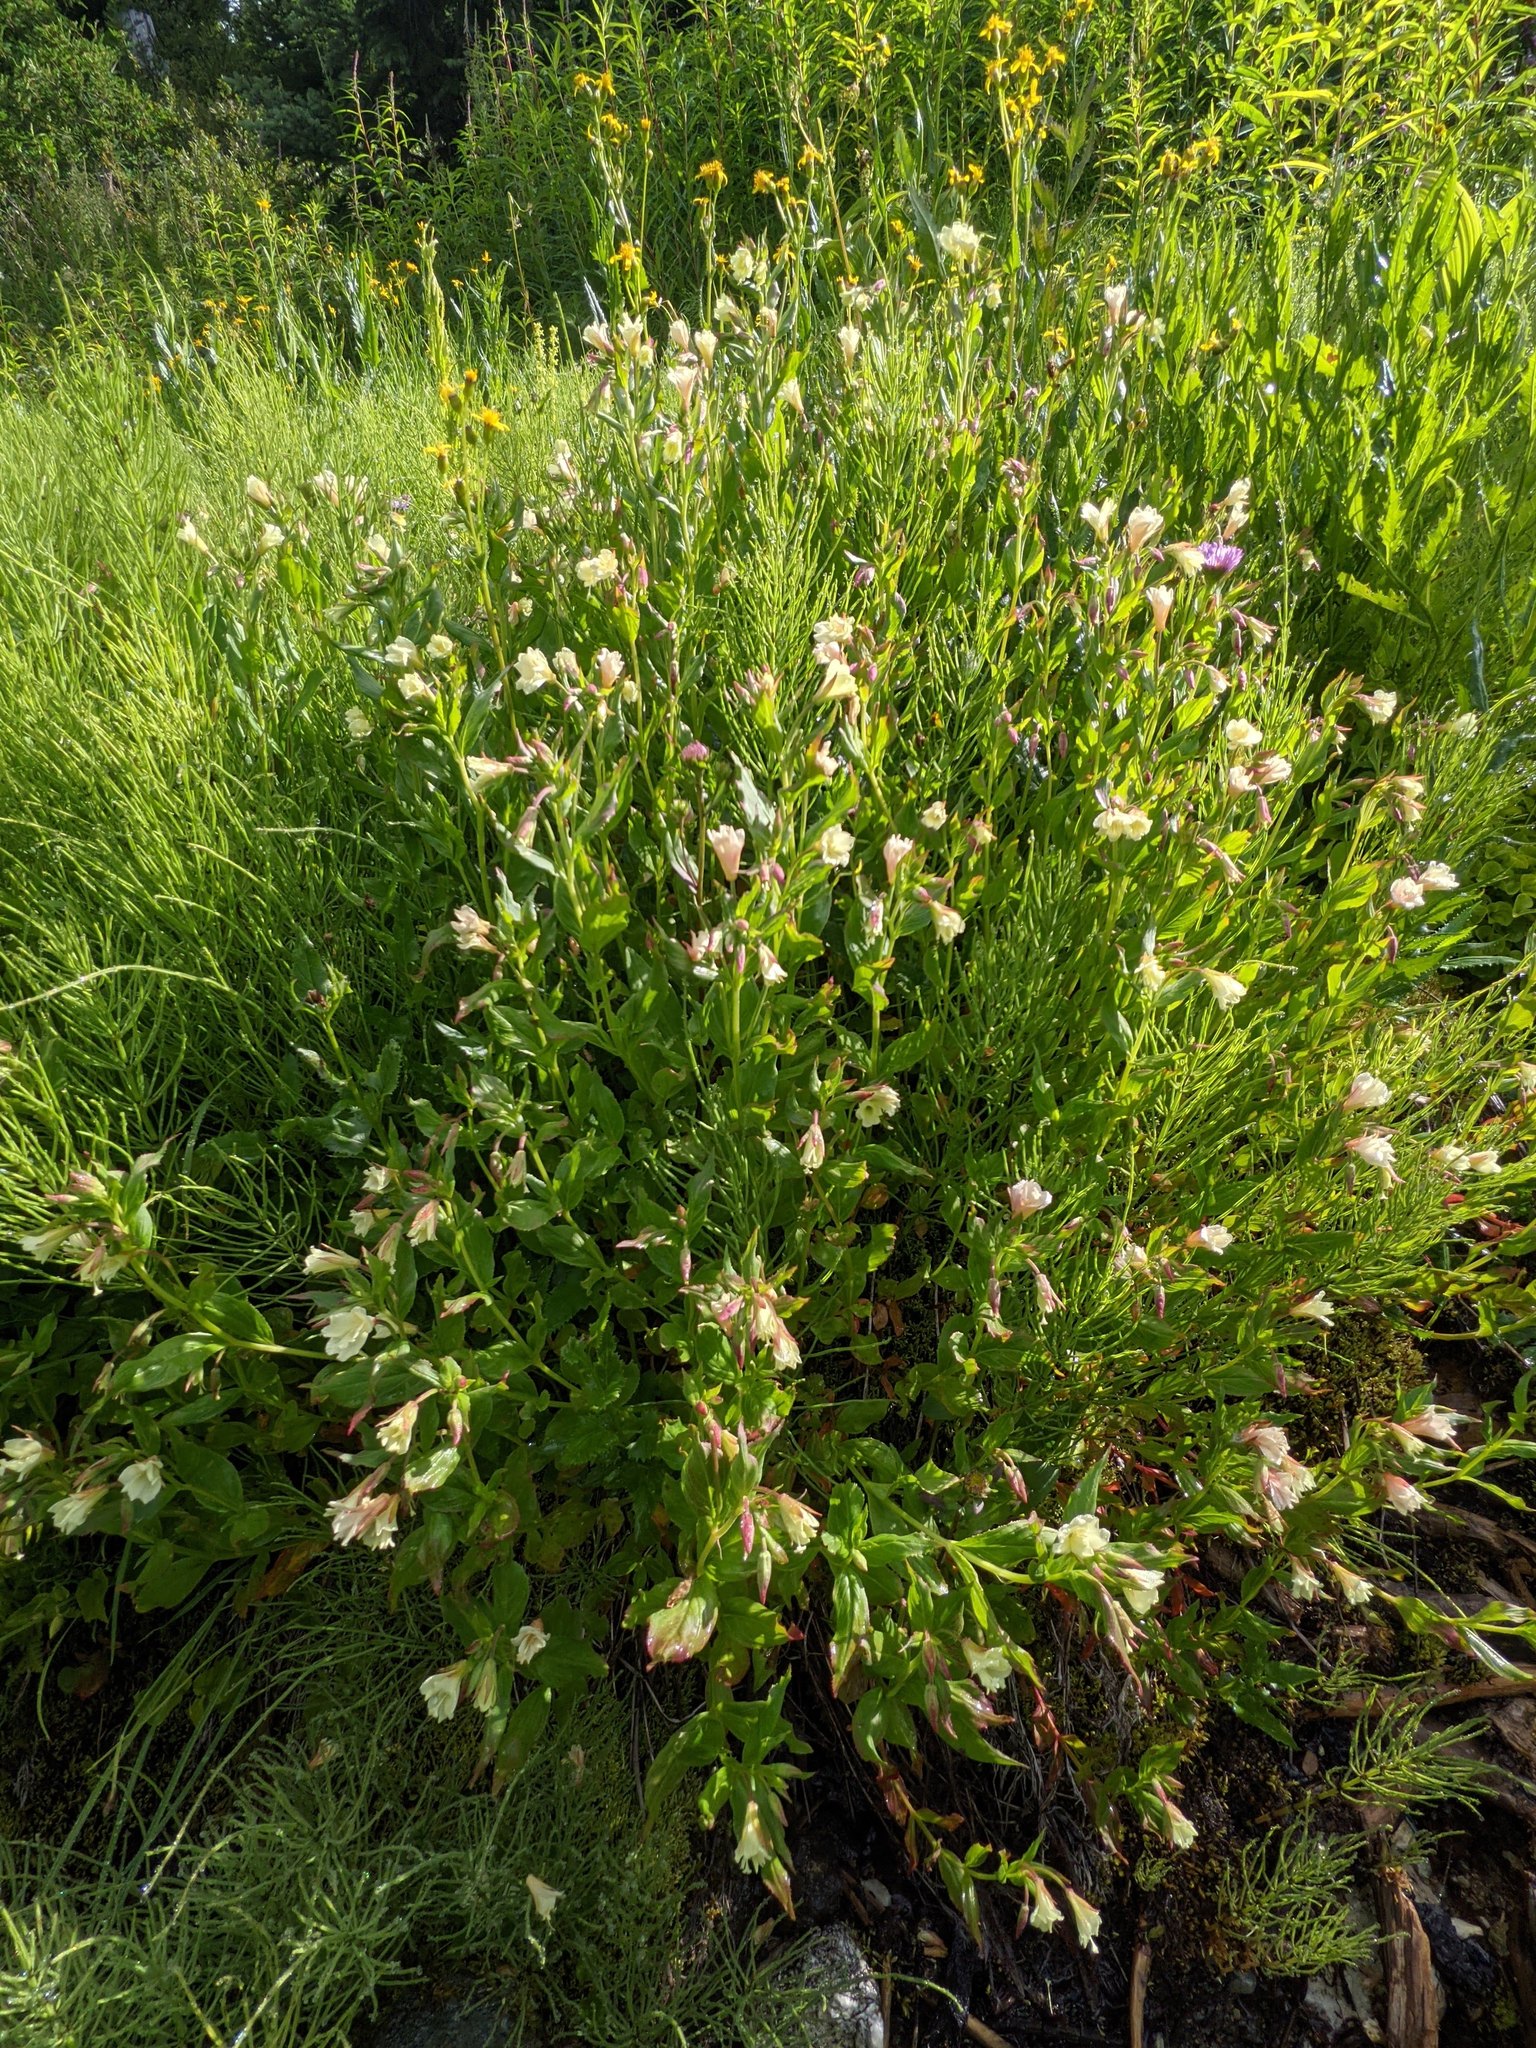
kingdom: Plantae
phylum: Tracheophyta
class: Magnoliopsida
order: Myrtales
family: Onagraceae
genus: Epilobium
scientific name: Epilobium luteum
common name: Yellow willowherb
